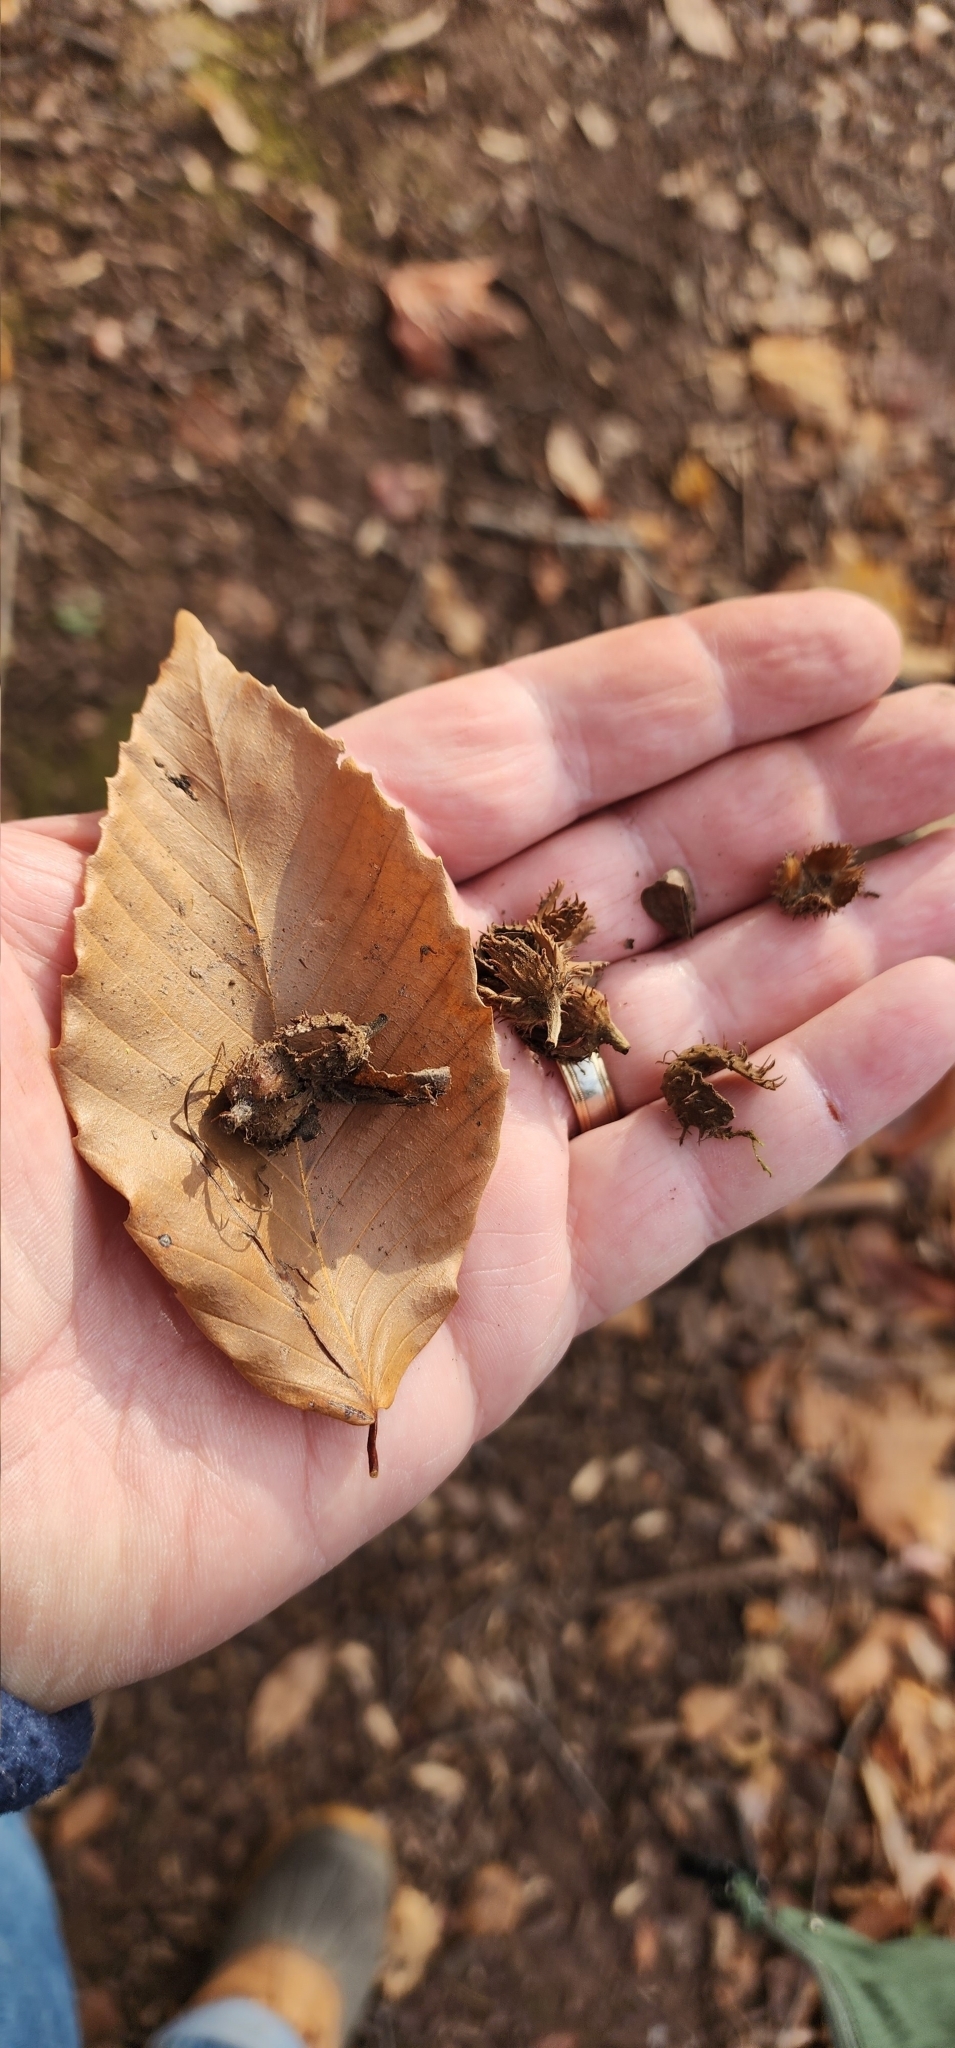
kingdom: Plantae
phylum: Tracheophyta
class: Magnoliopsida
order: Fagales
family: Fagaceae
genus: Fagus
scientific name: Fagus grandifolia
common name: American beech
